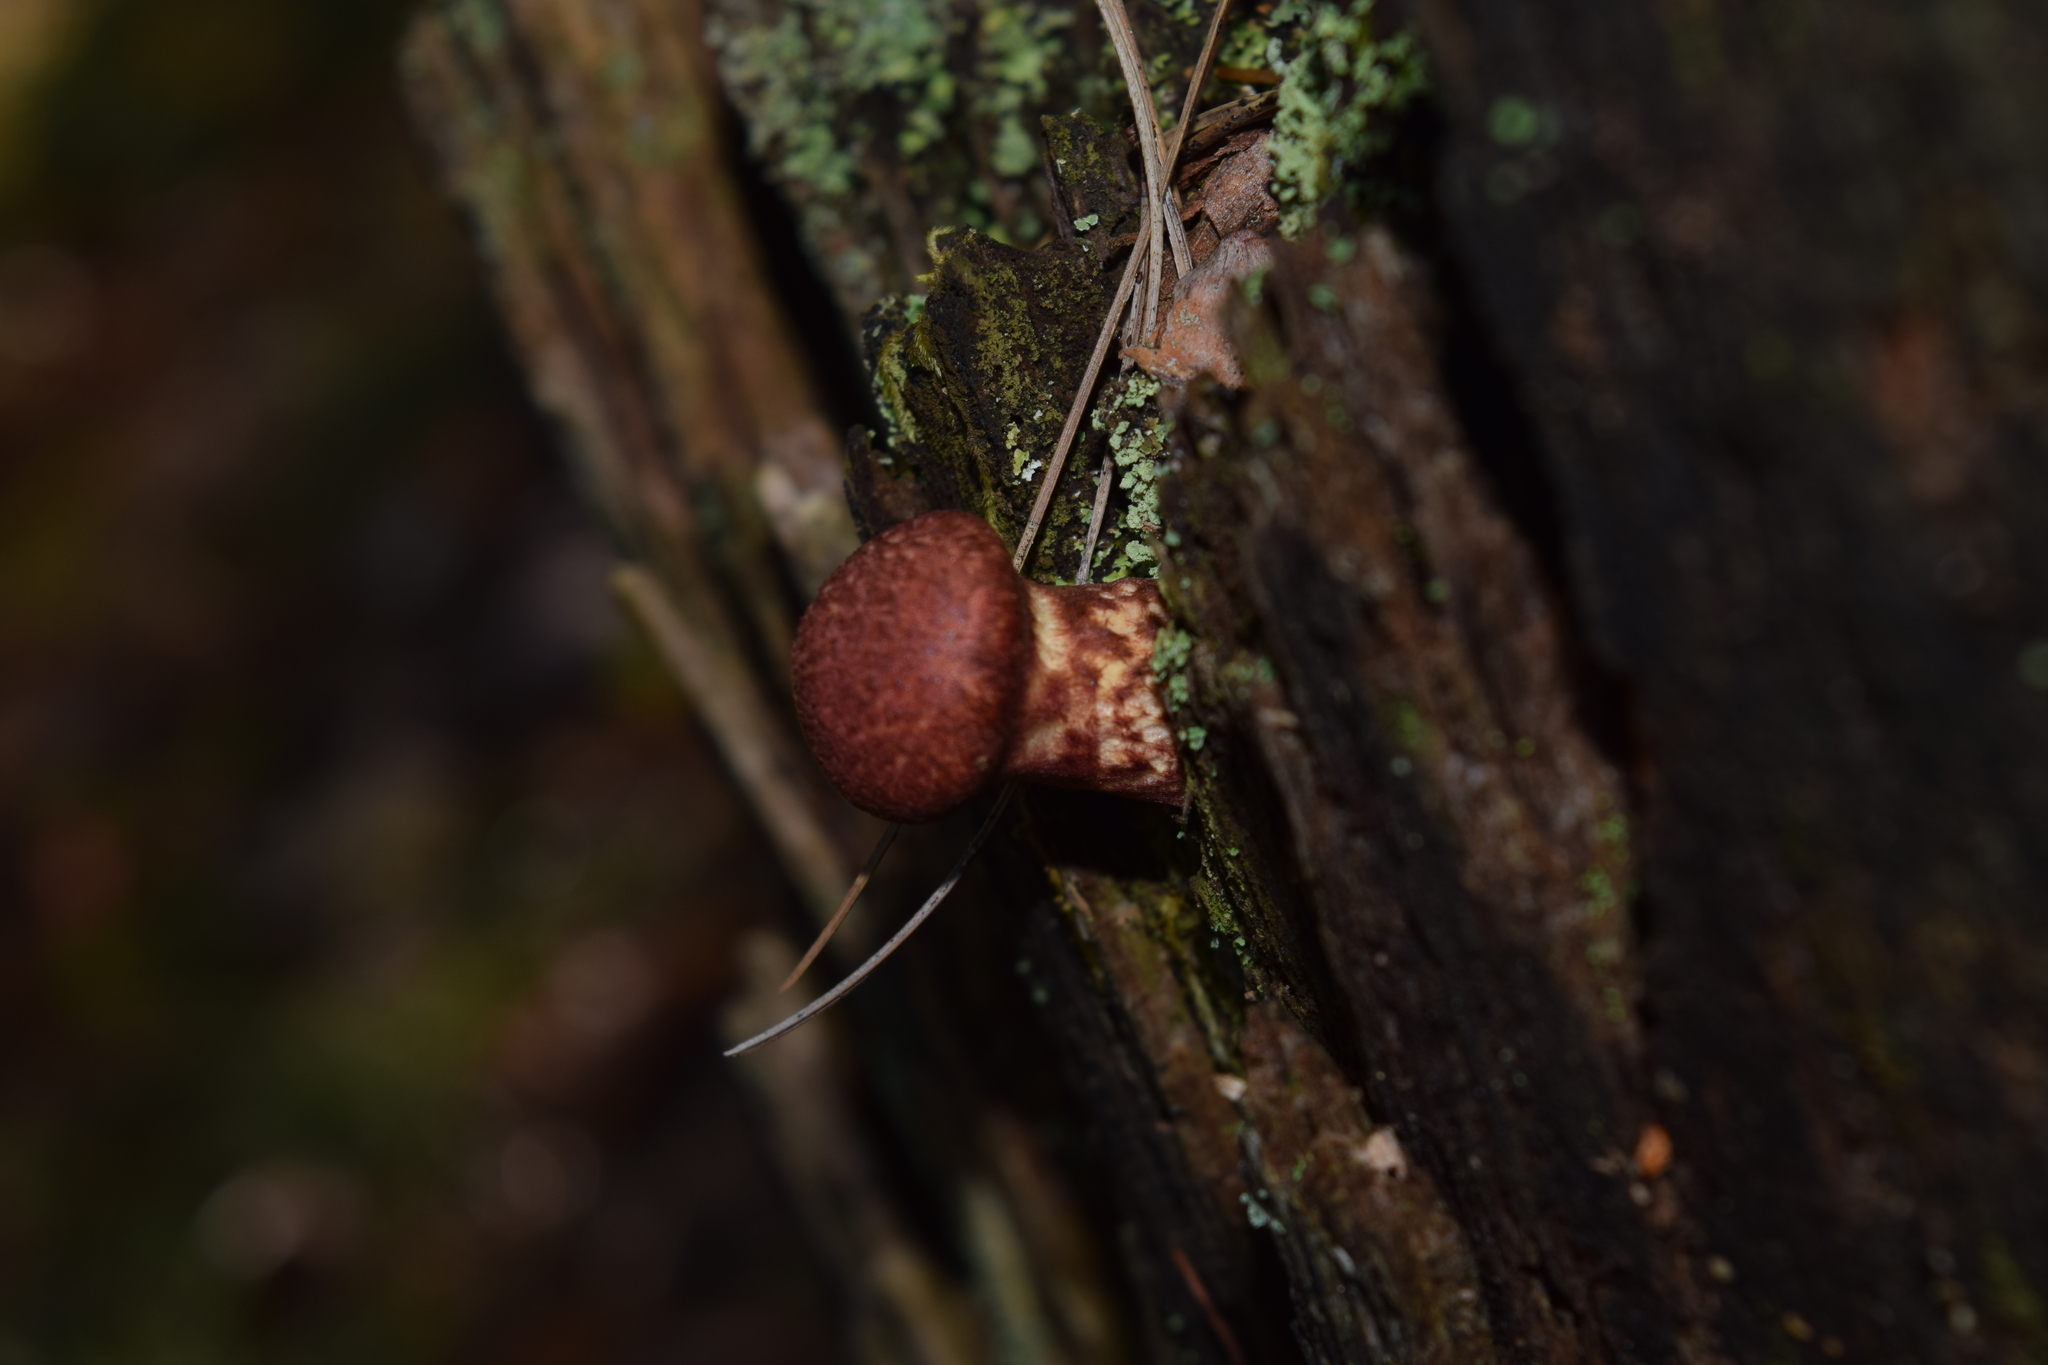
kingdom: Fungi
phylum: Basidiomycota
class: Agaricomycetes
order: Boletales
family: Suillaceae
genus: Suillus
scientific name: Suillus spraguei
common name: Painted suillus
